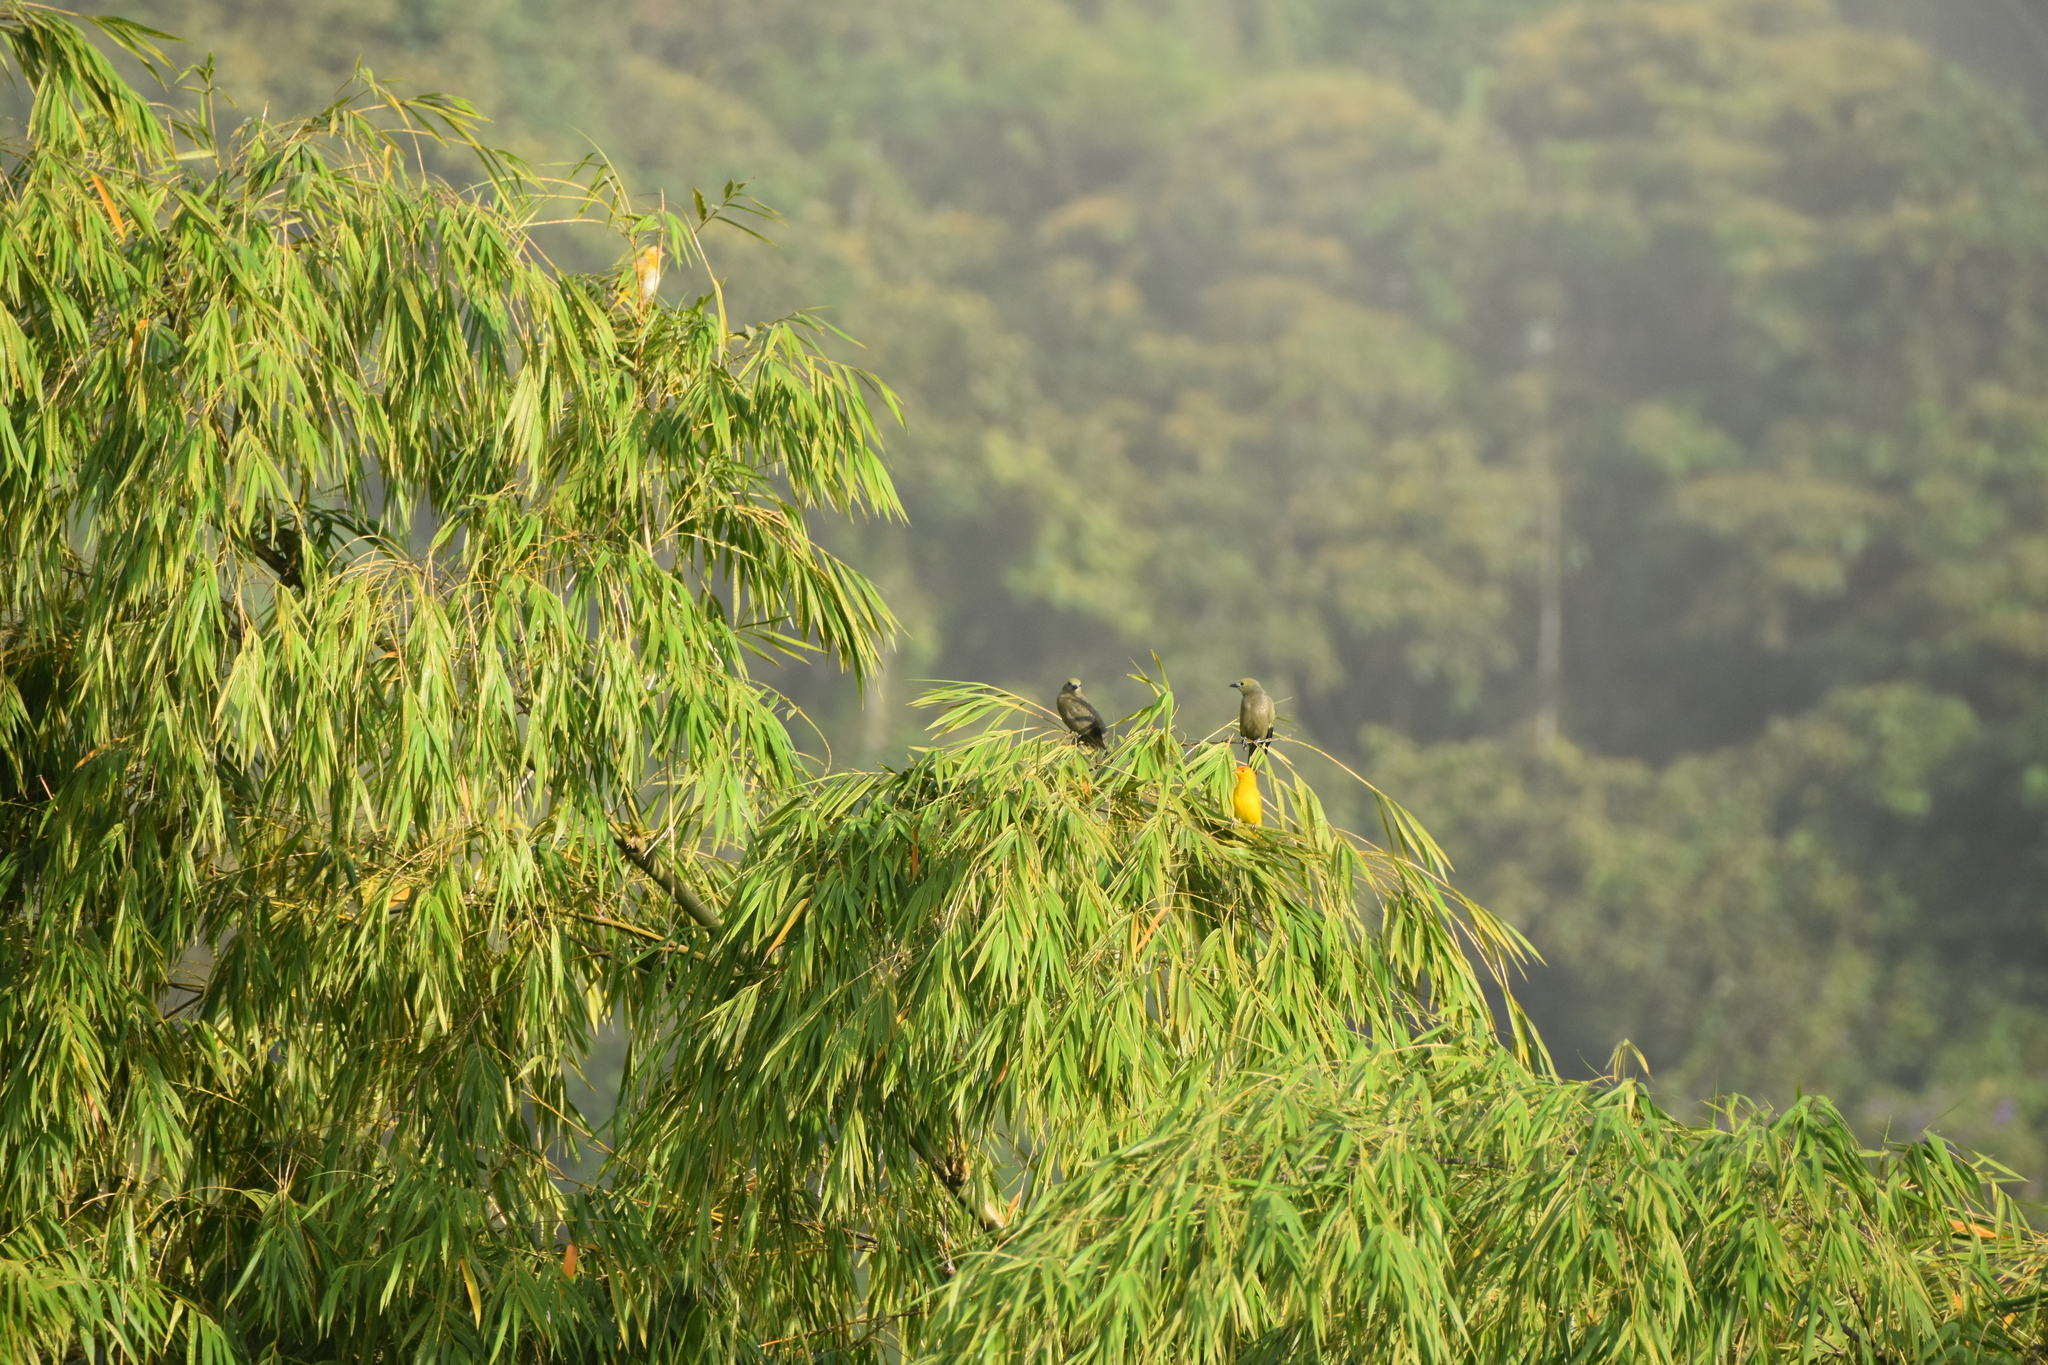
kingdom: Animalia
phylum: Chordata
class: Aves
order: Passeriformes
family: Thraupidae
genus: Sicalis
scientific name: Sicalis flaveola
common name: Saffron finch
